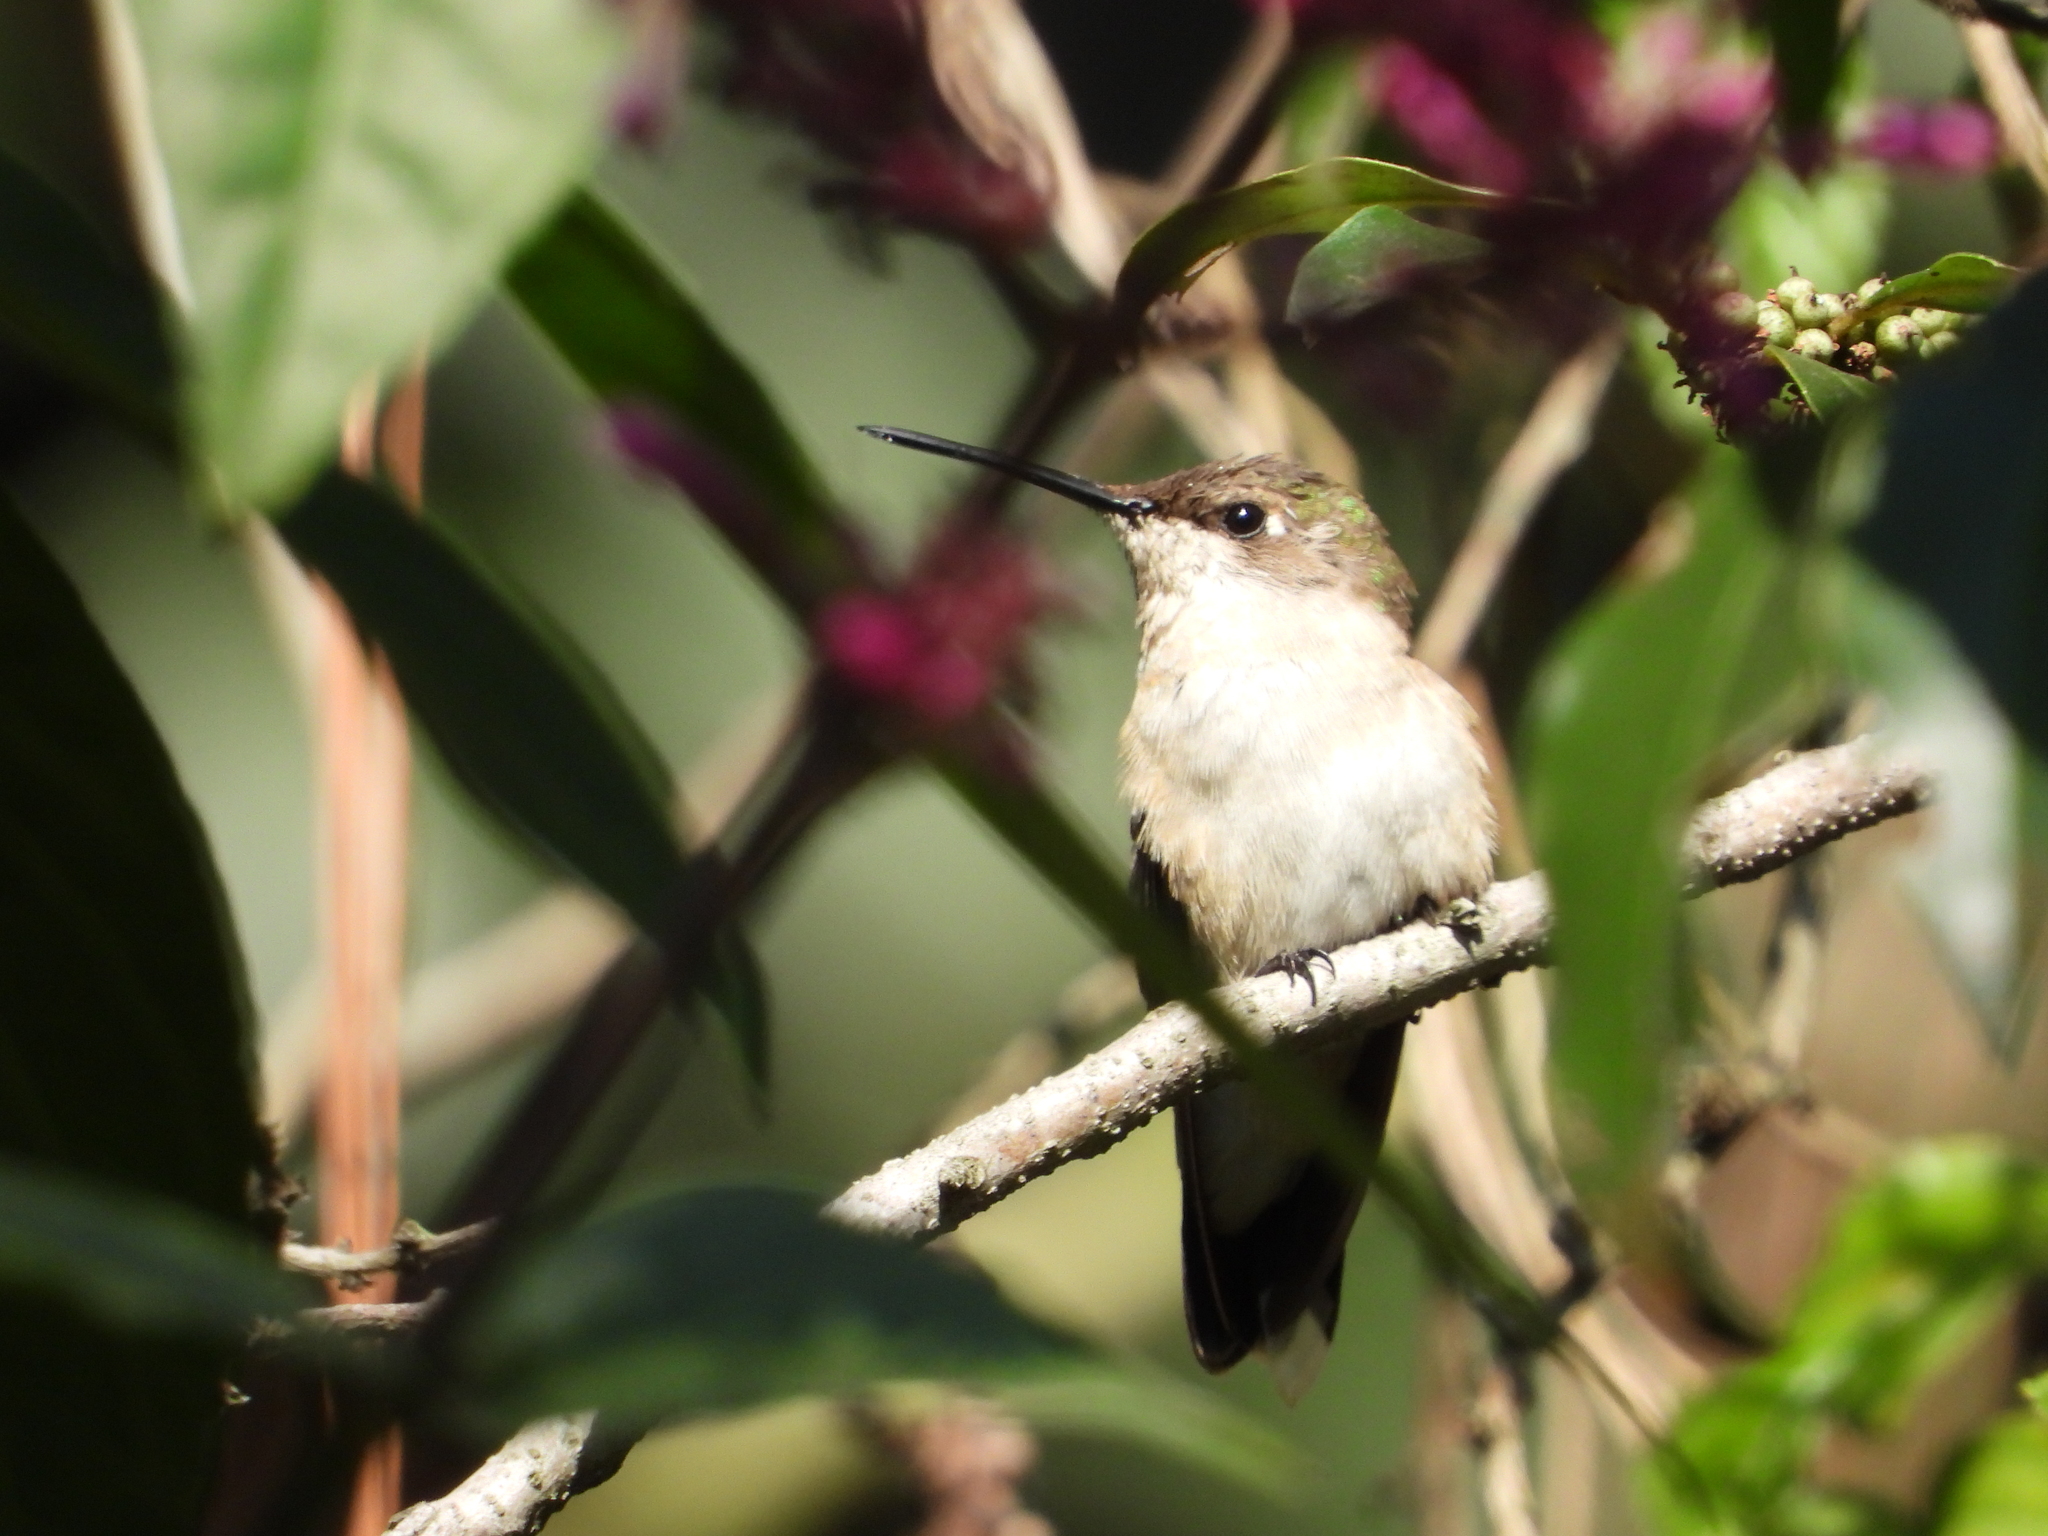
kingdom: Animalia
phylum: Chordata
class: Aves
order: Apodiformes
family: Trochilidae
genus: Archilochus
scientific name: Archilochus colubris
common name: Ruby-throated hummingbird
